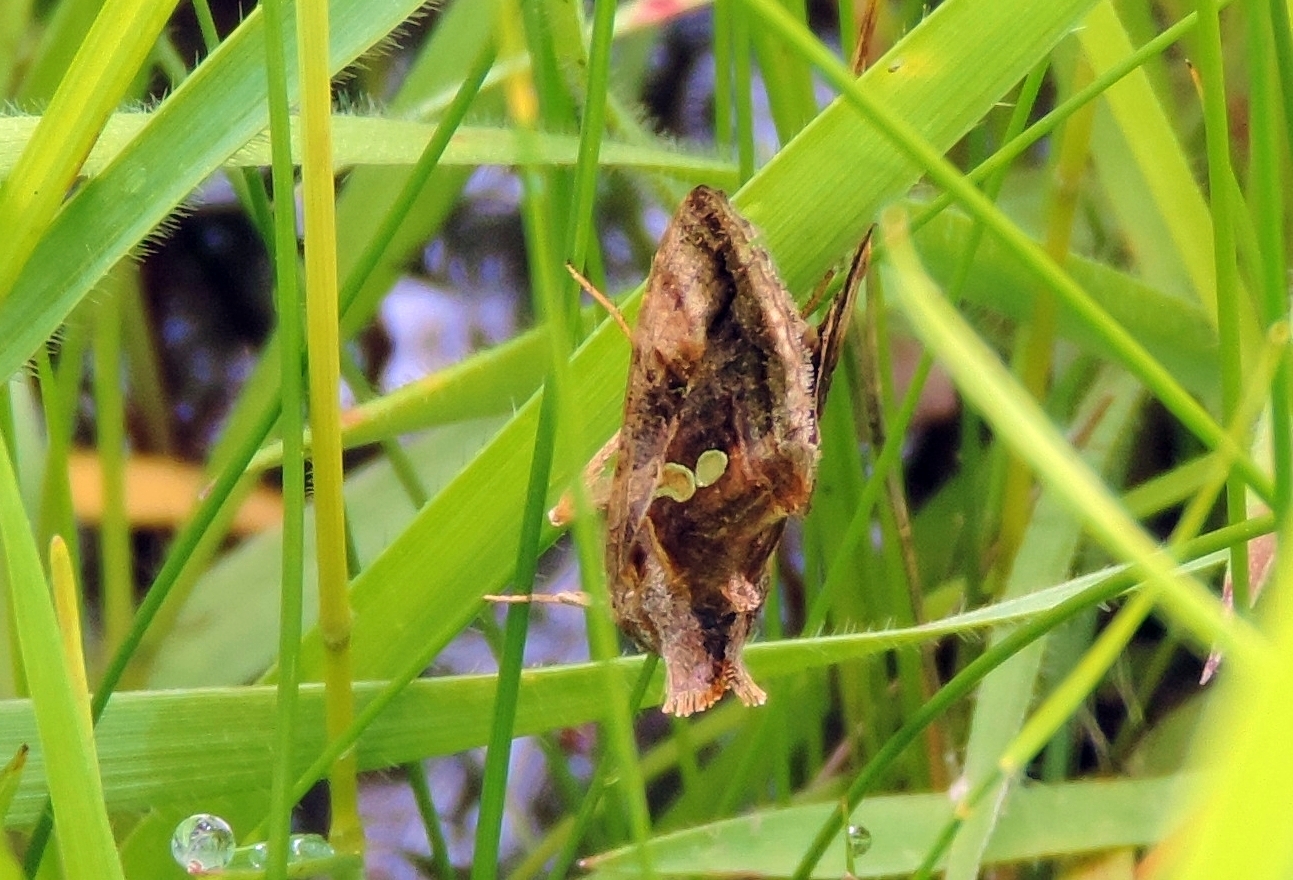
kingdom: Animalia
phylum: Arthropoda
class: Insecta
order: Lepidoptera
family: Noctuidae
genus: Chrysodeixis
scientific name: Chrysodeixis chalcites
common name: Golden twin-spot
